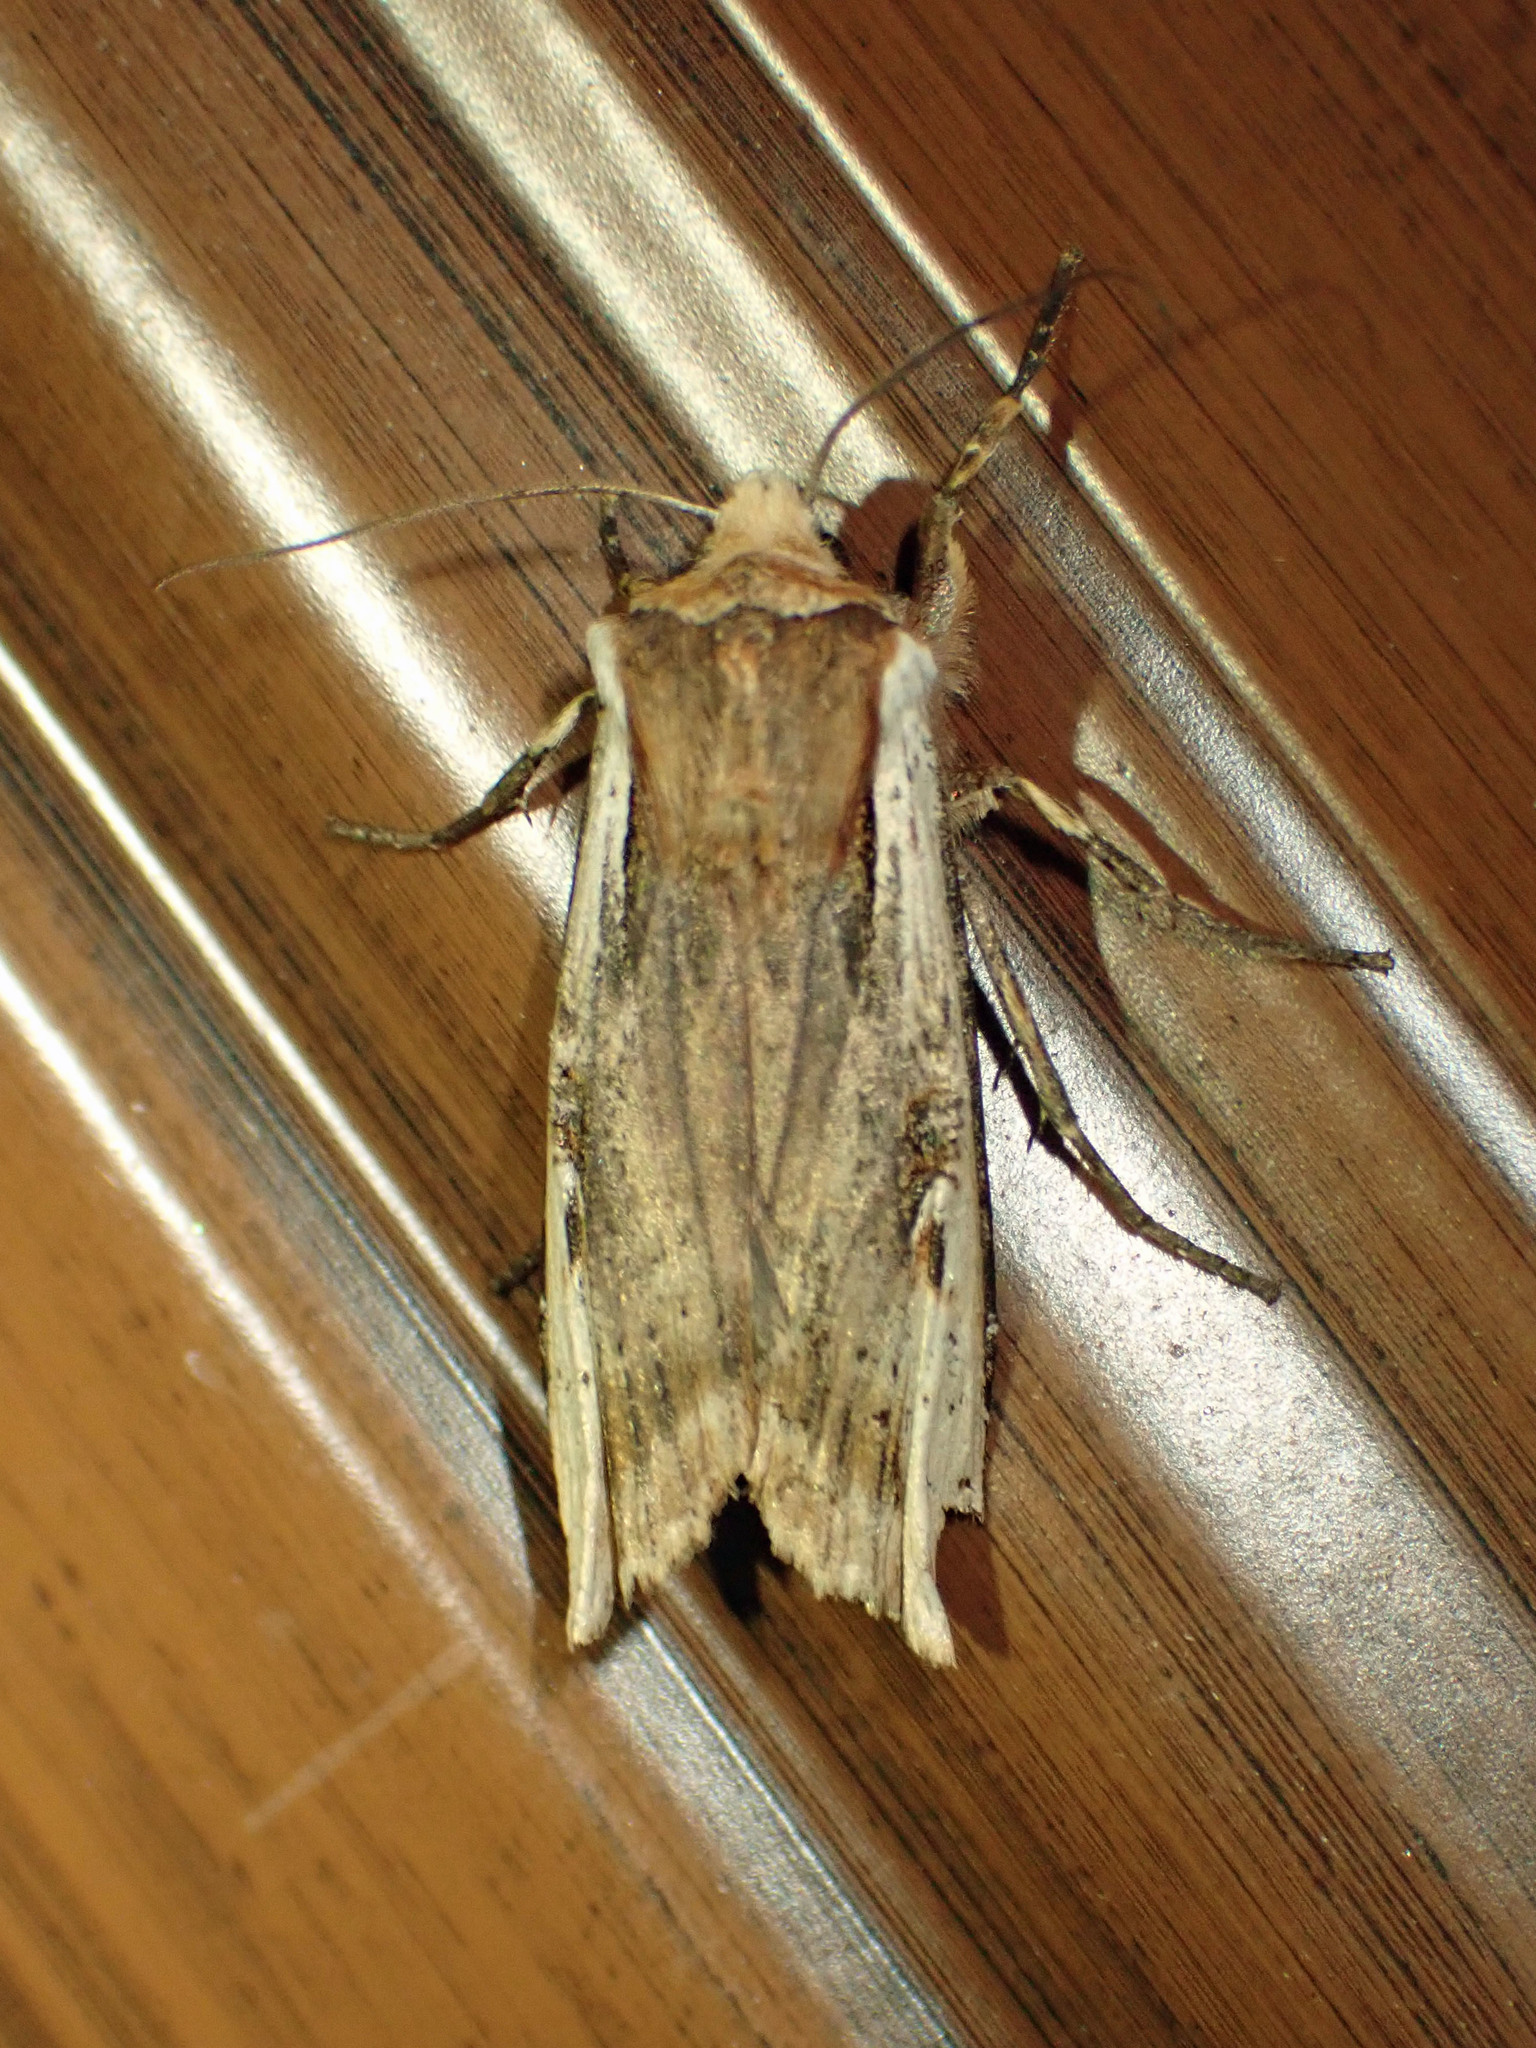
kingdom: Animalia
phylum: Arthropoda
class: Insecta
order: Lepidoptera
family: Noctuidae
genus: Xylena
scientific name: Xylena curvimacula
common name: Dot-and-dash swordgrass moth
